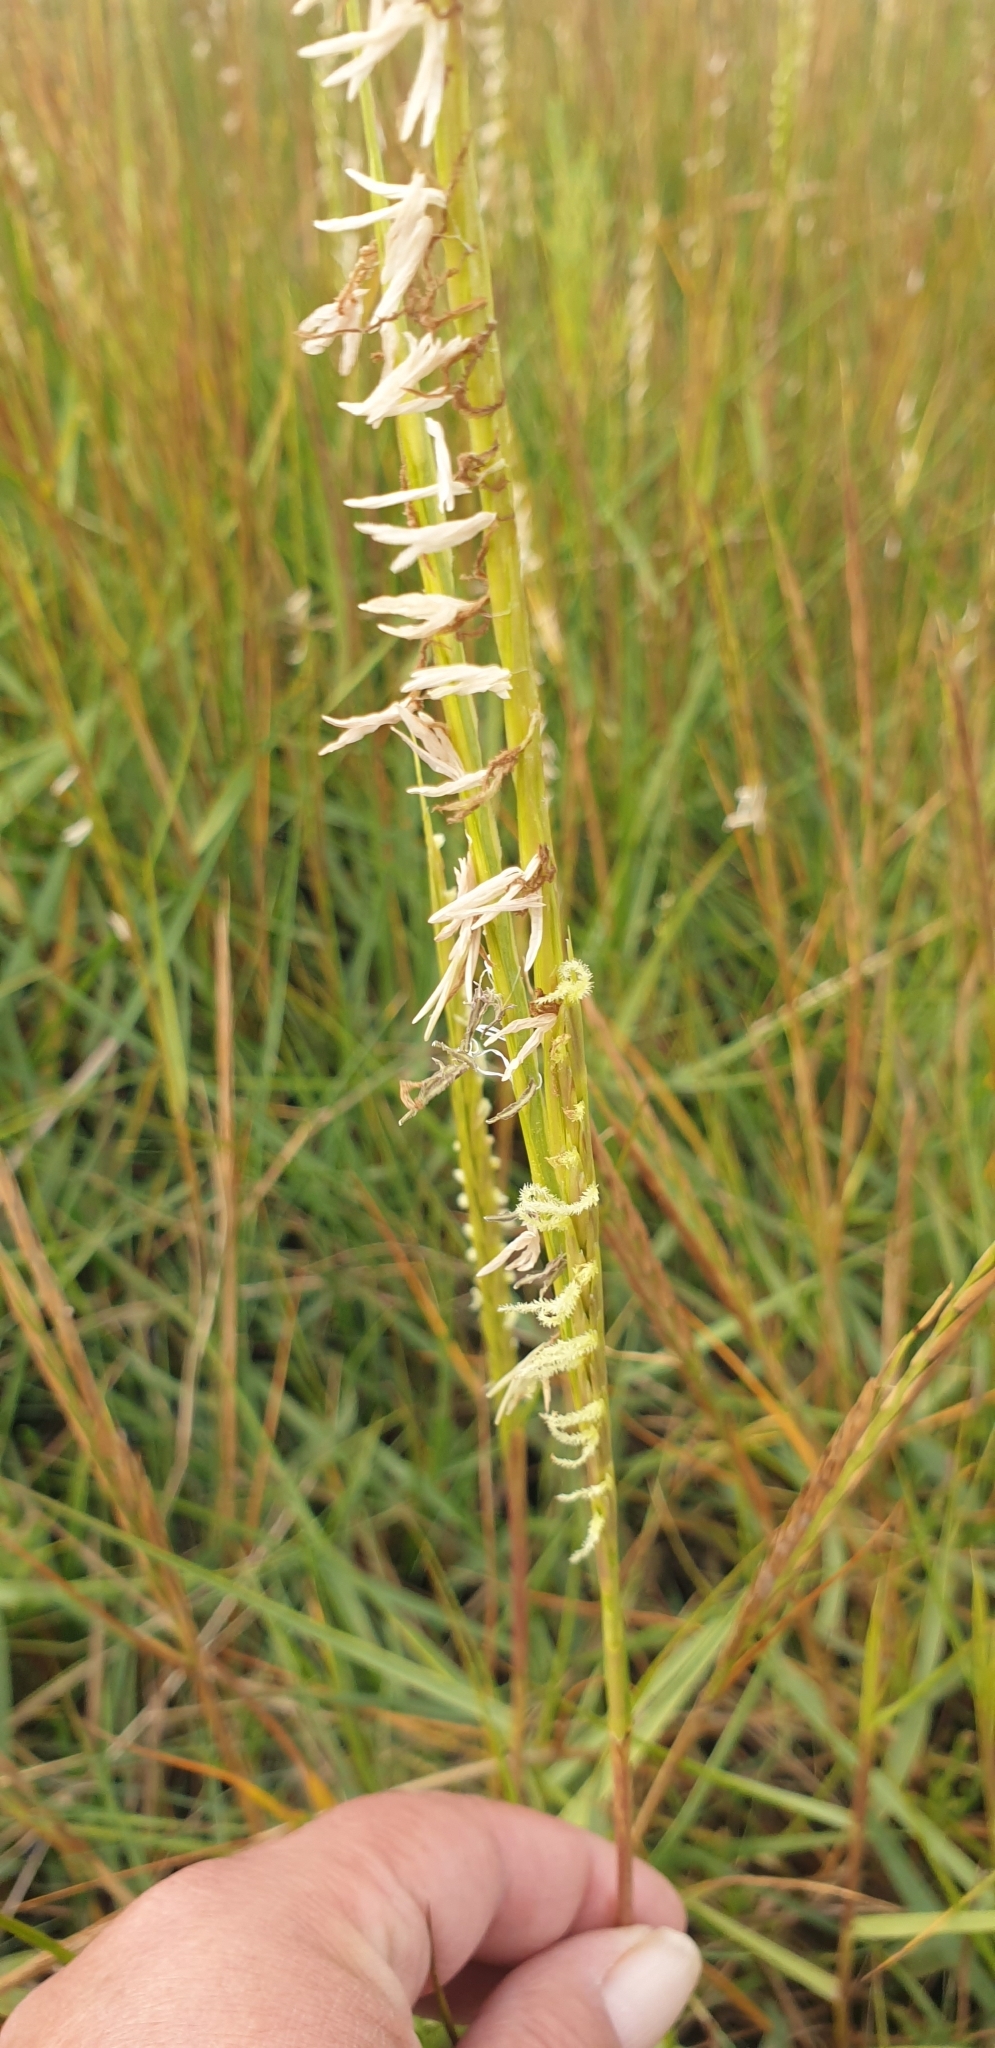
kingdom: Plantae
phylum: Tracheophyta
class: Liliopsida
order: Poales
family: Poaceae
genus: Sporobolus
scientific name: Sporobolus anglicus
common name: English cordgrass
